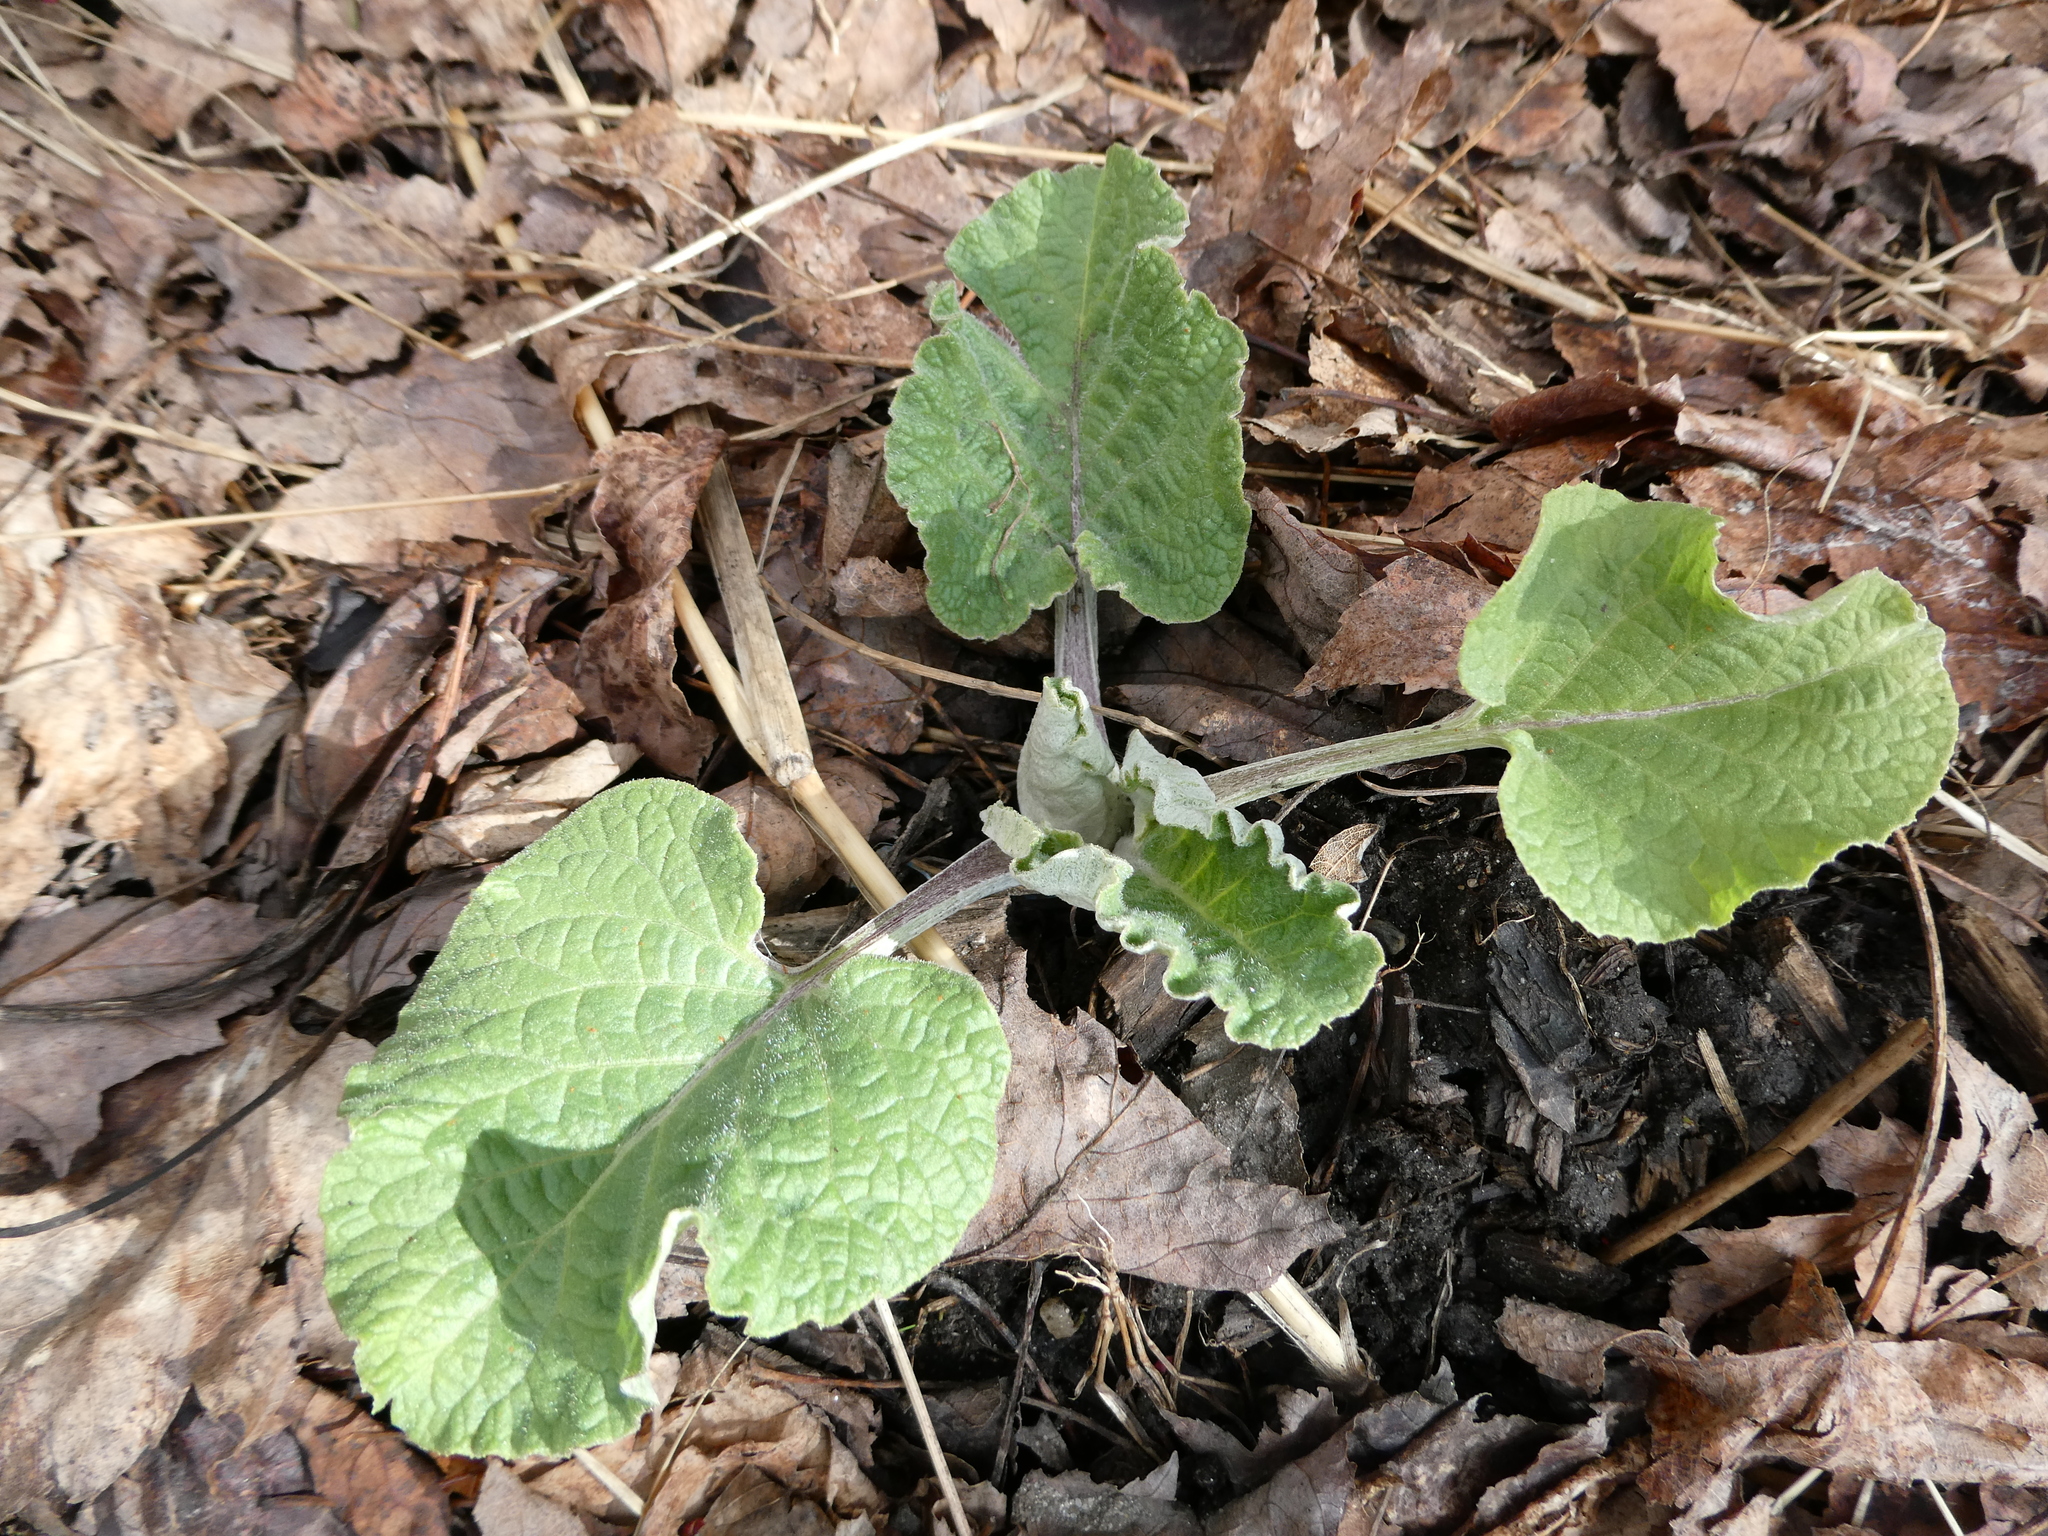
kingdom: Plantae
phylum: Tracheophyta
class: Magnoliopsida
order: Asterales
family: Asteraceae
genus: Arctium
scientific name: Arctium
